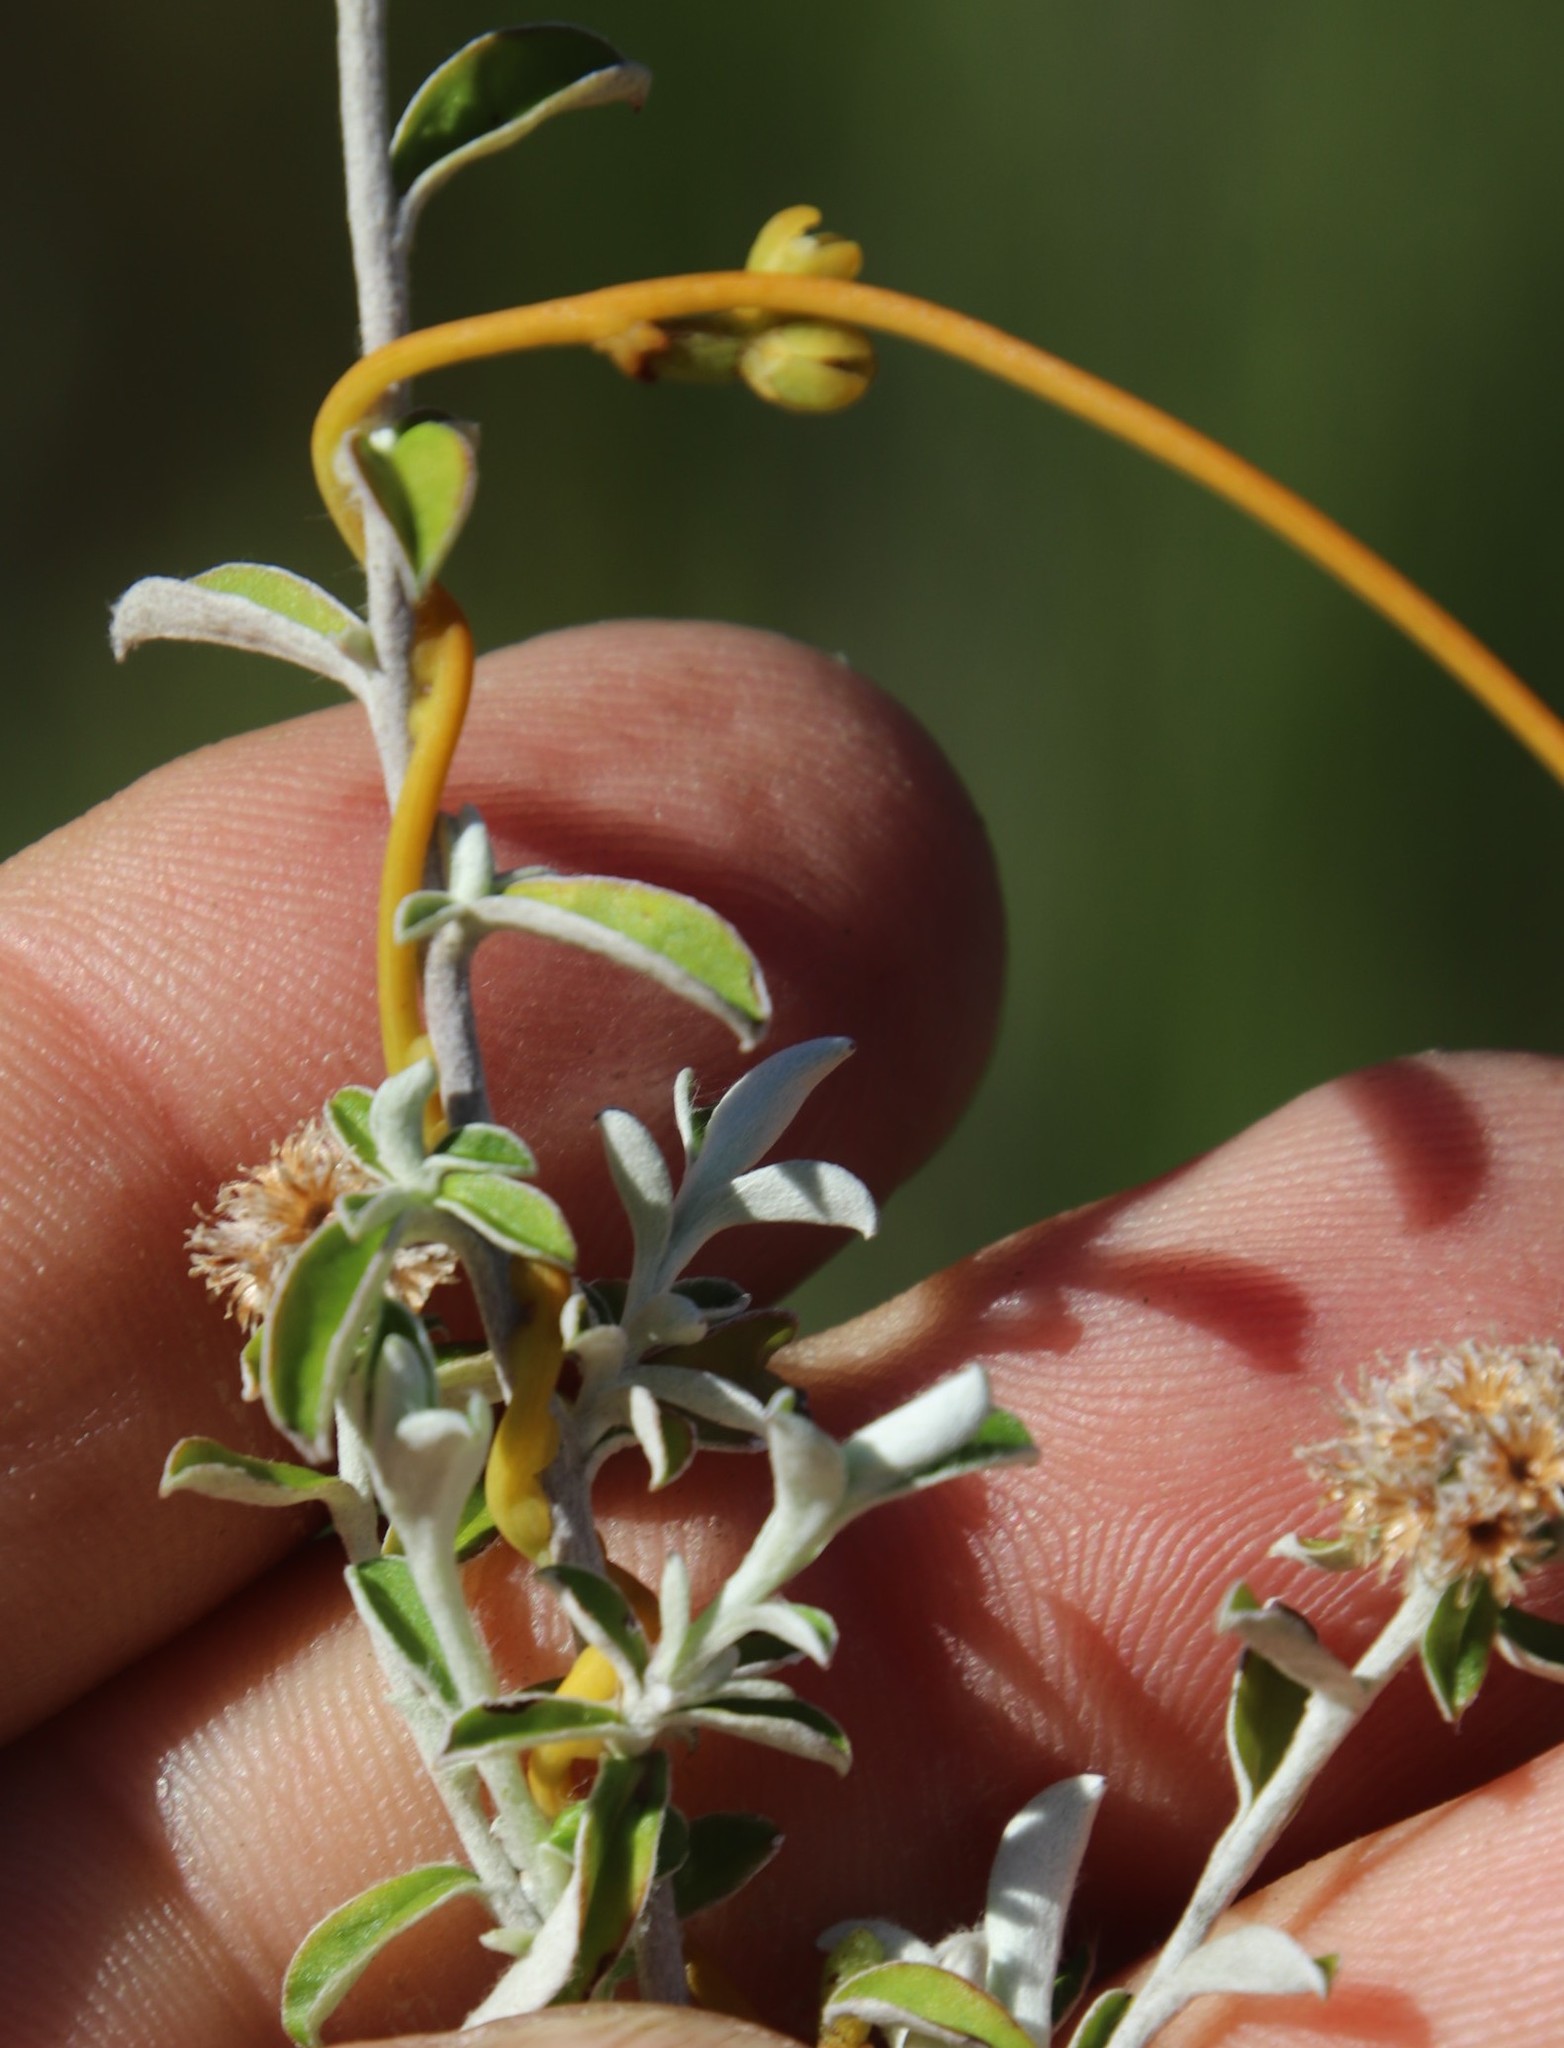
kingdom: Plantae
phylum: Tracheophyta
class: Magnoliopsida
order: Laurales
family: Lauraceae
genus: Cassytha
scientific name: Cassytha ciliolata
